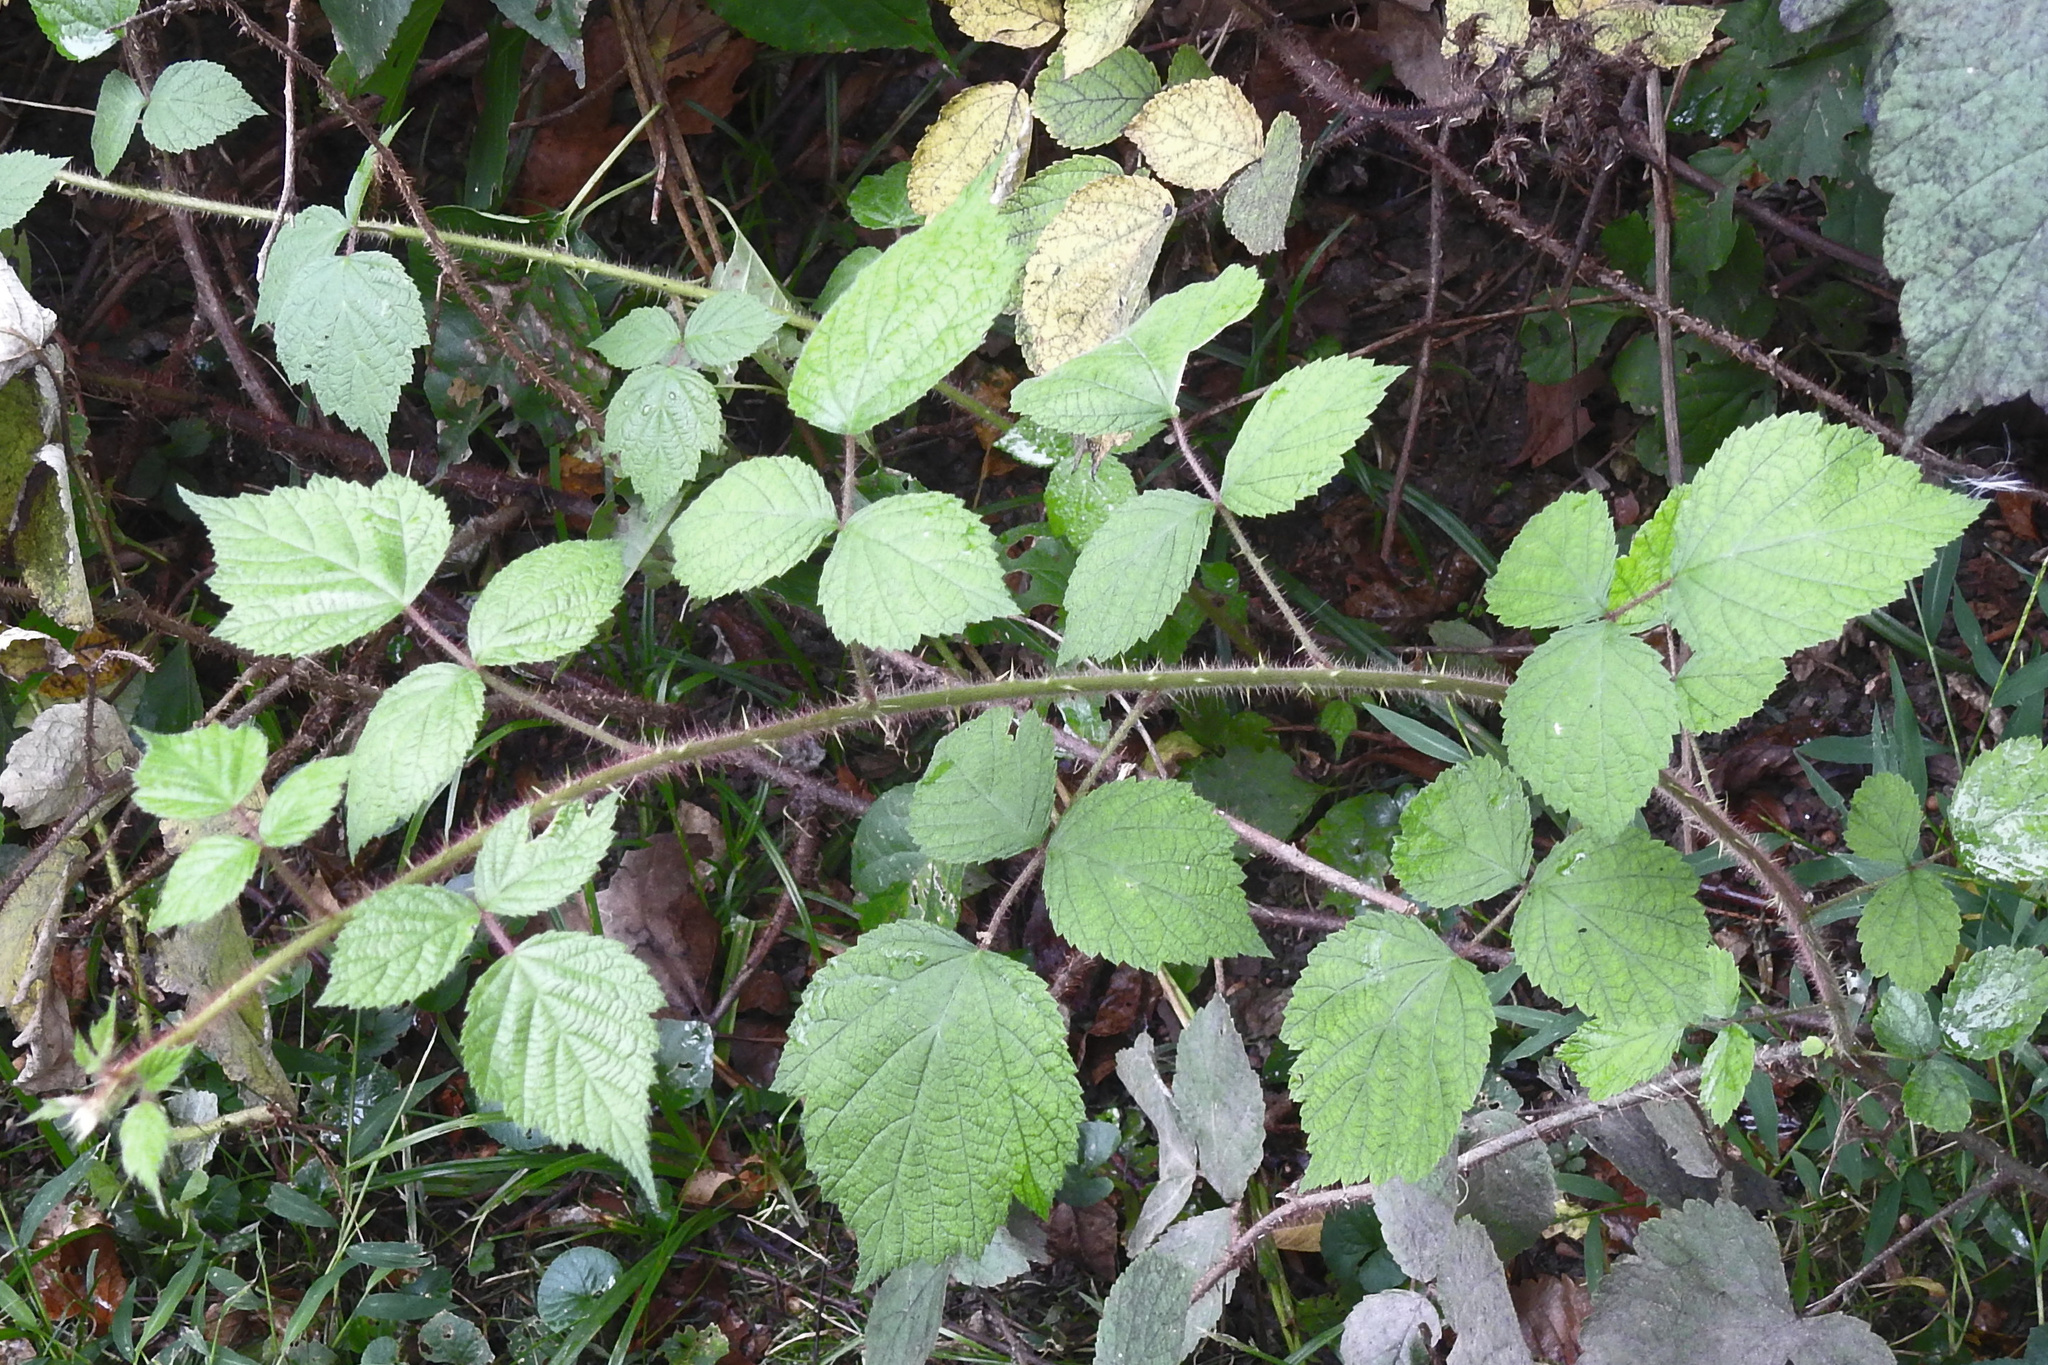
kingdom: Plantae
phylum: Tracheophyta
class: Magnoliopsida
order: Rosales
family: Rosaceae
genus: Rubus
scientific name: Rubus phoenicolasius
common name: Japanese wineberry
